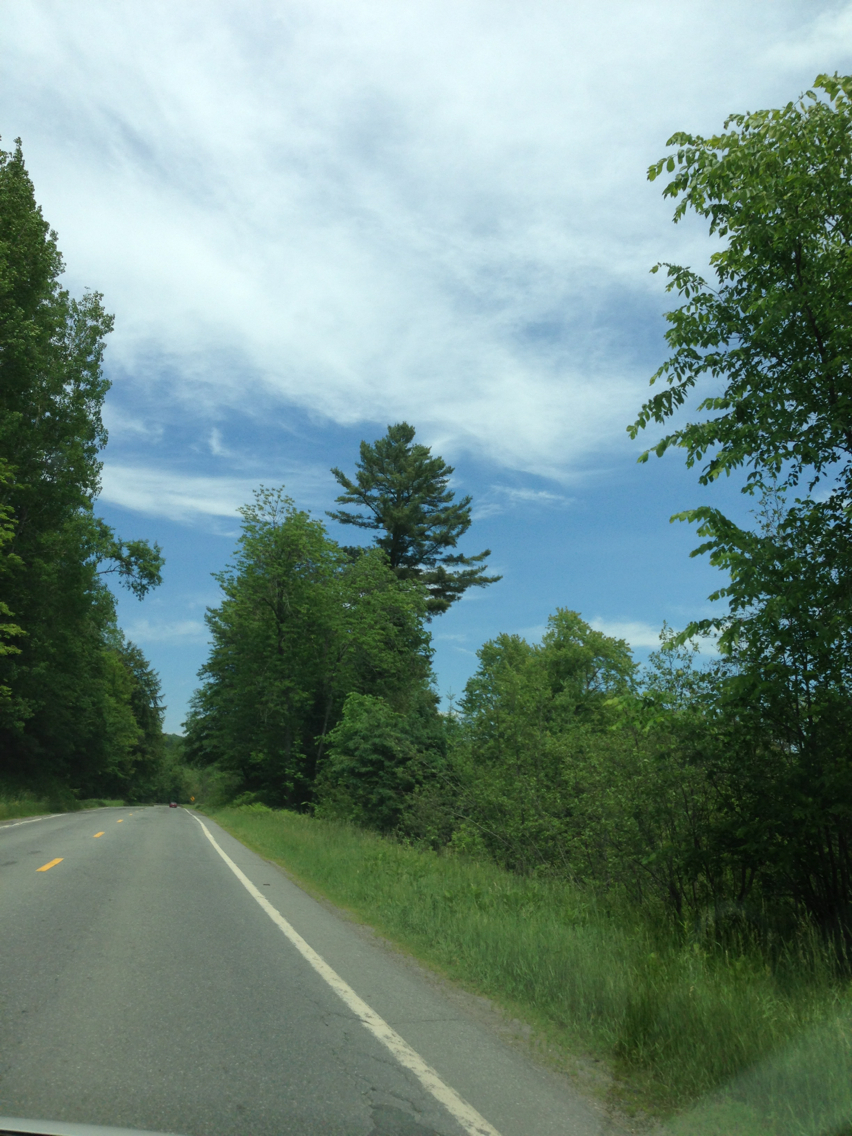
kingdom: Plantae
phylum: Tracheophyta
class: Pinopsida
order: Pinales
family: Pinaceae
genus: Pinus
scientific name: Pinus strobus
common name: Weymouth pine
